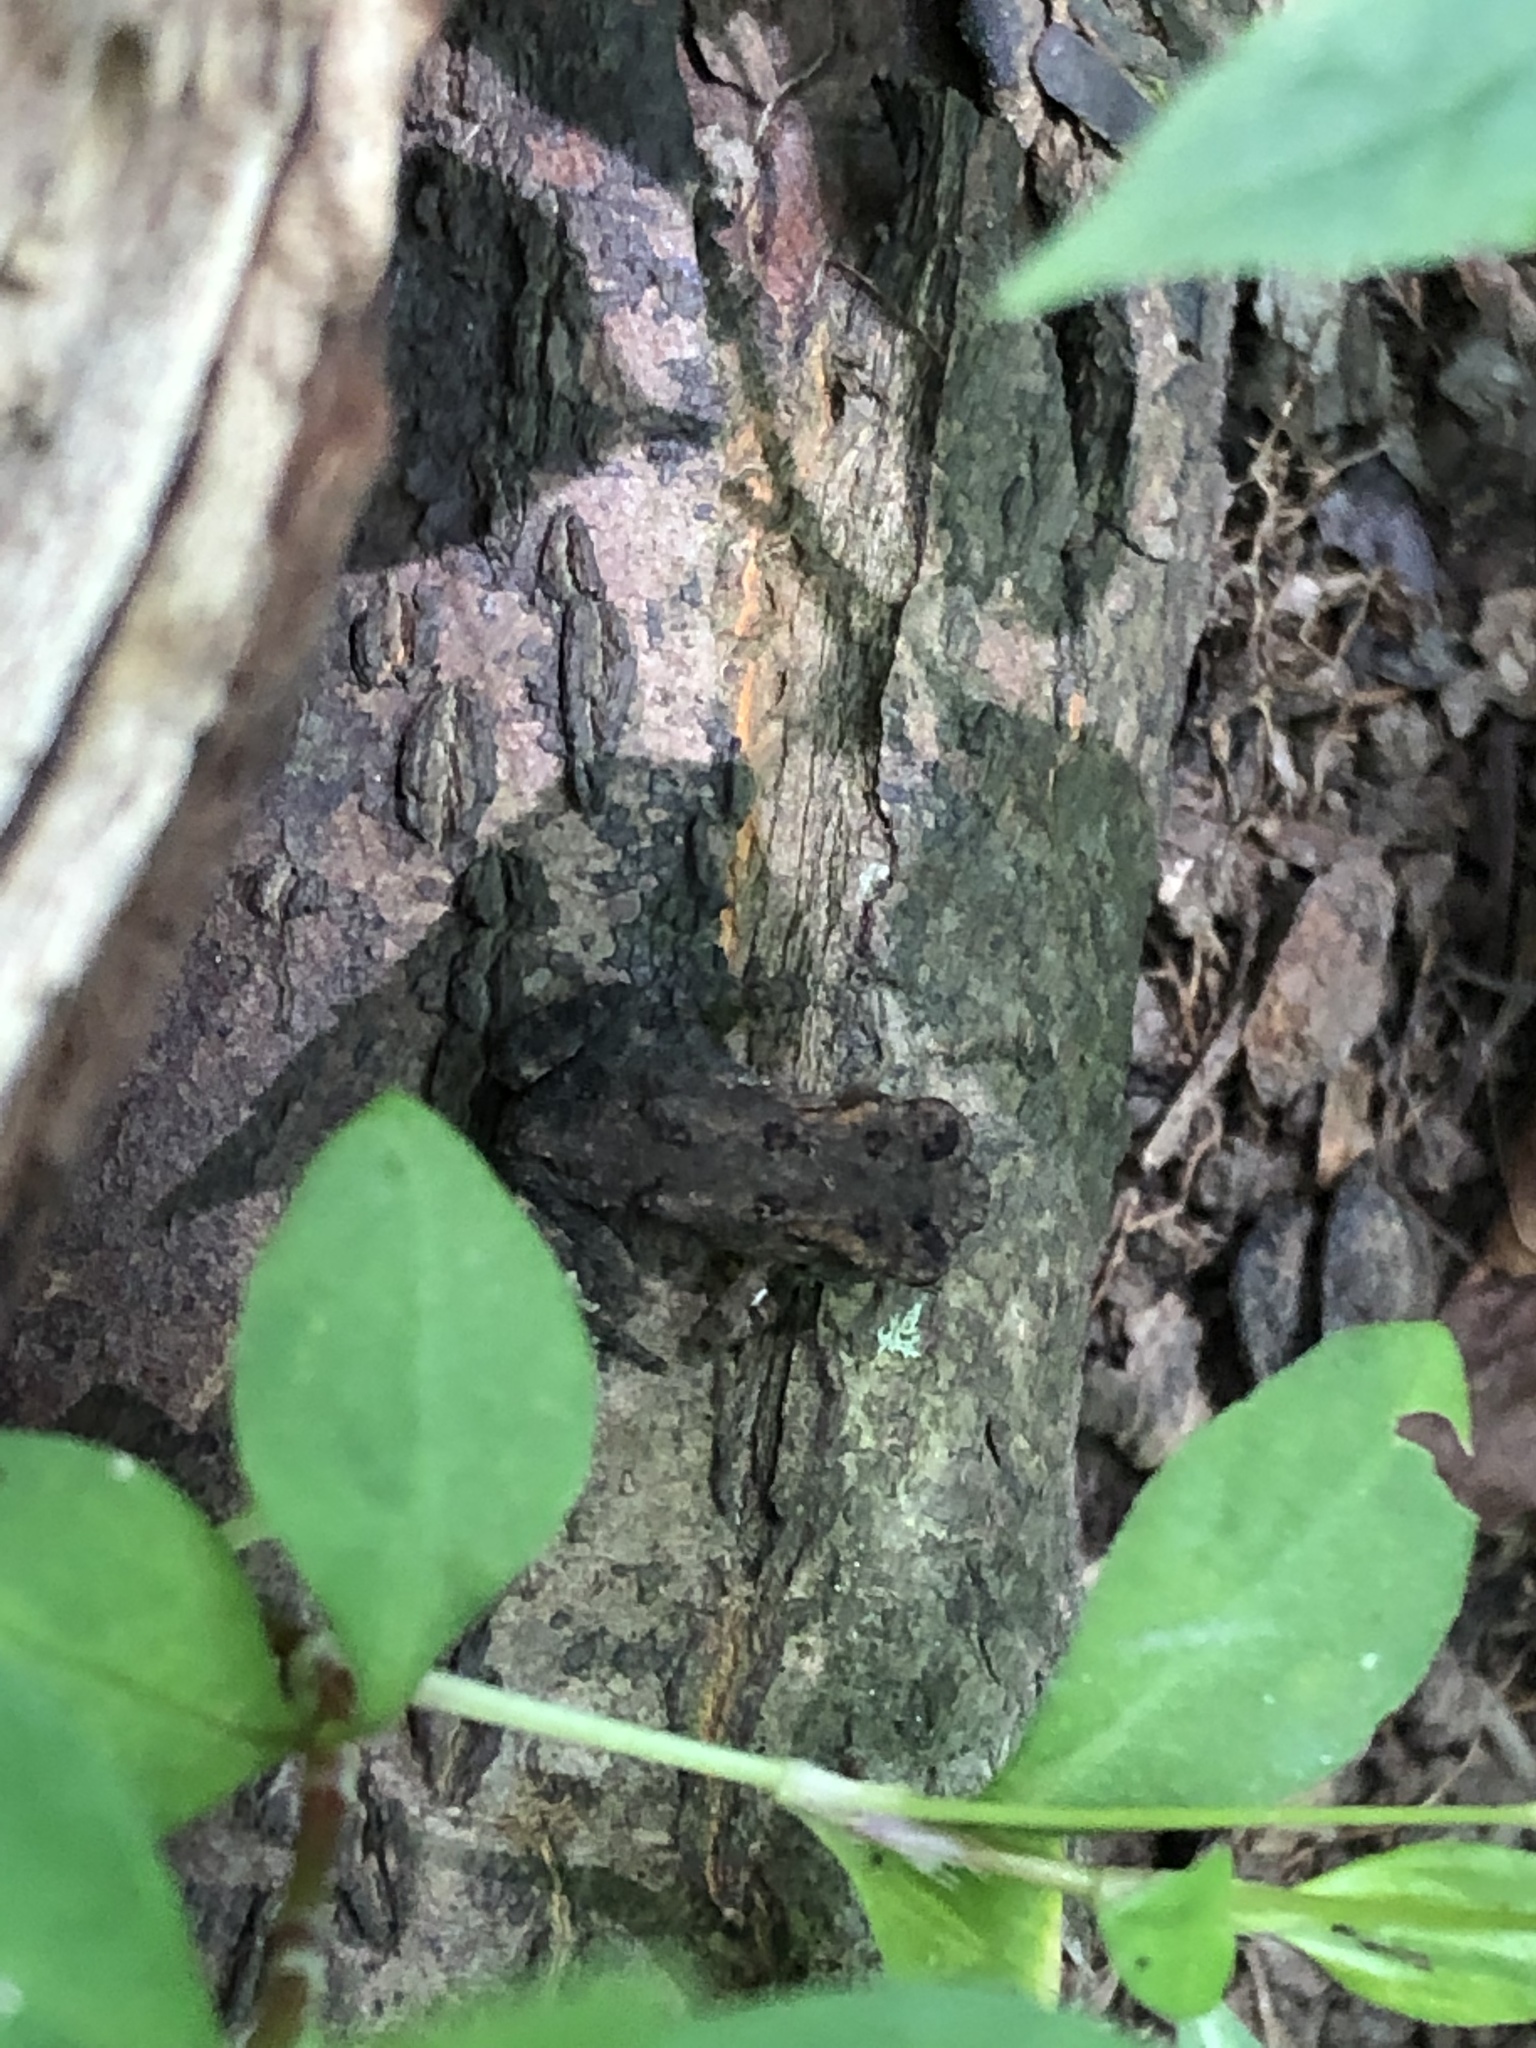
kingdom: Animalia
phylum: Chordata
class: Amphibia
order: Anura
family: Bufonidae
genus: Anaxyrus
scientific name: Anaxyrus americanus
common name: American toad
